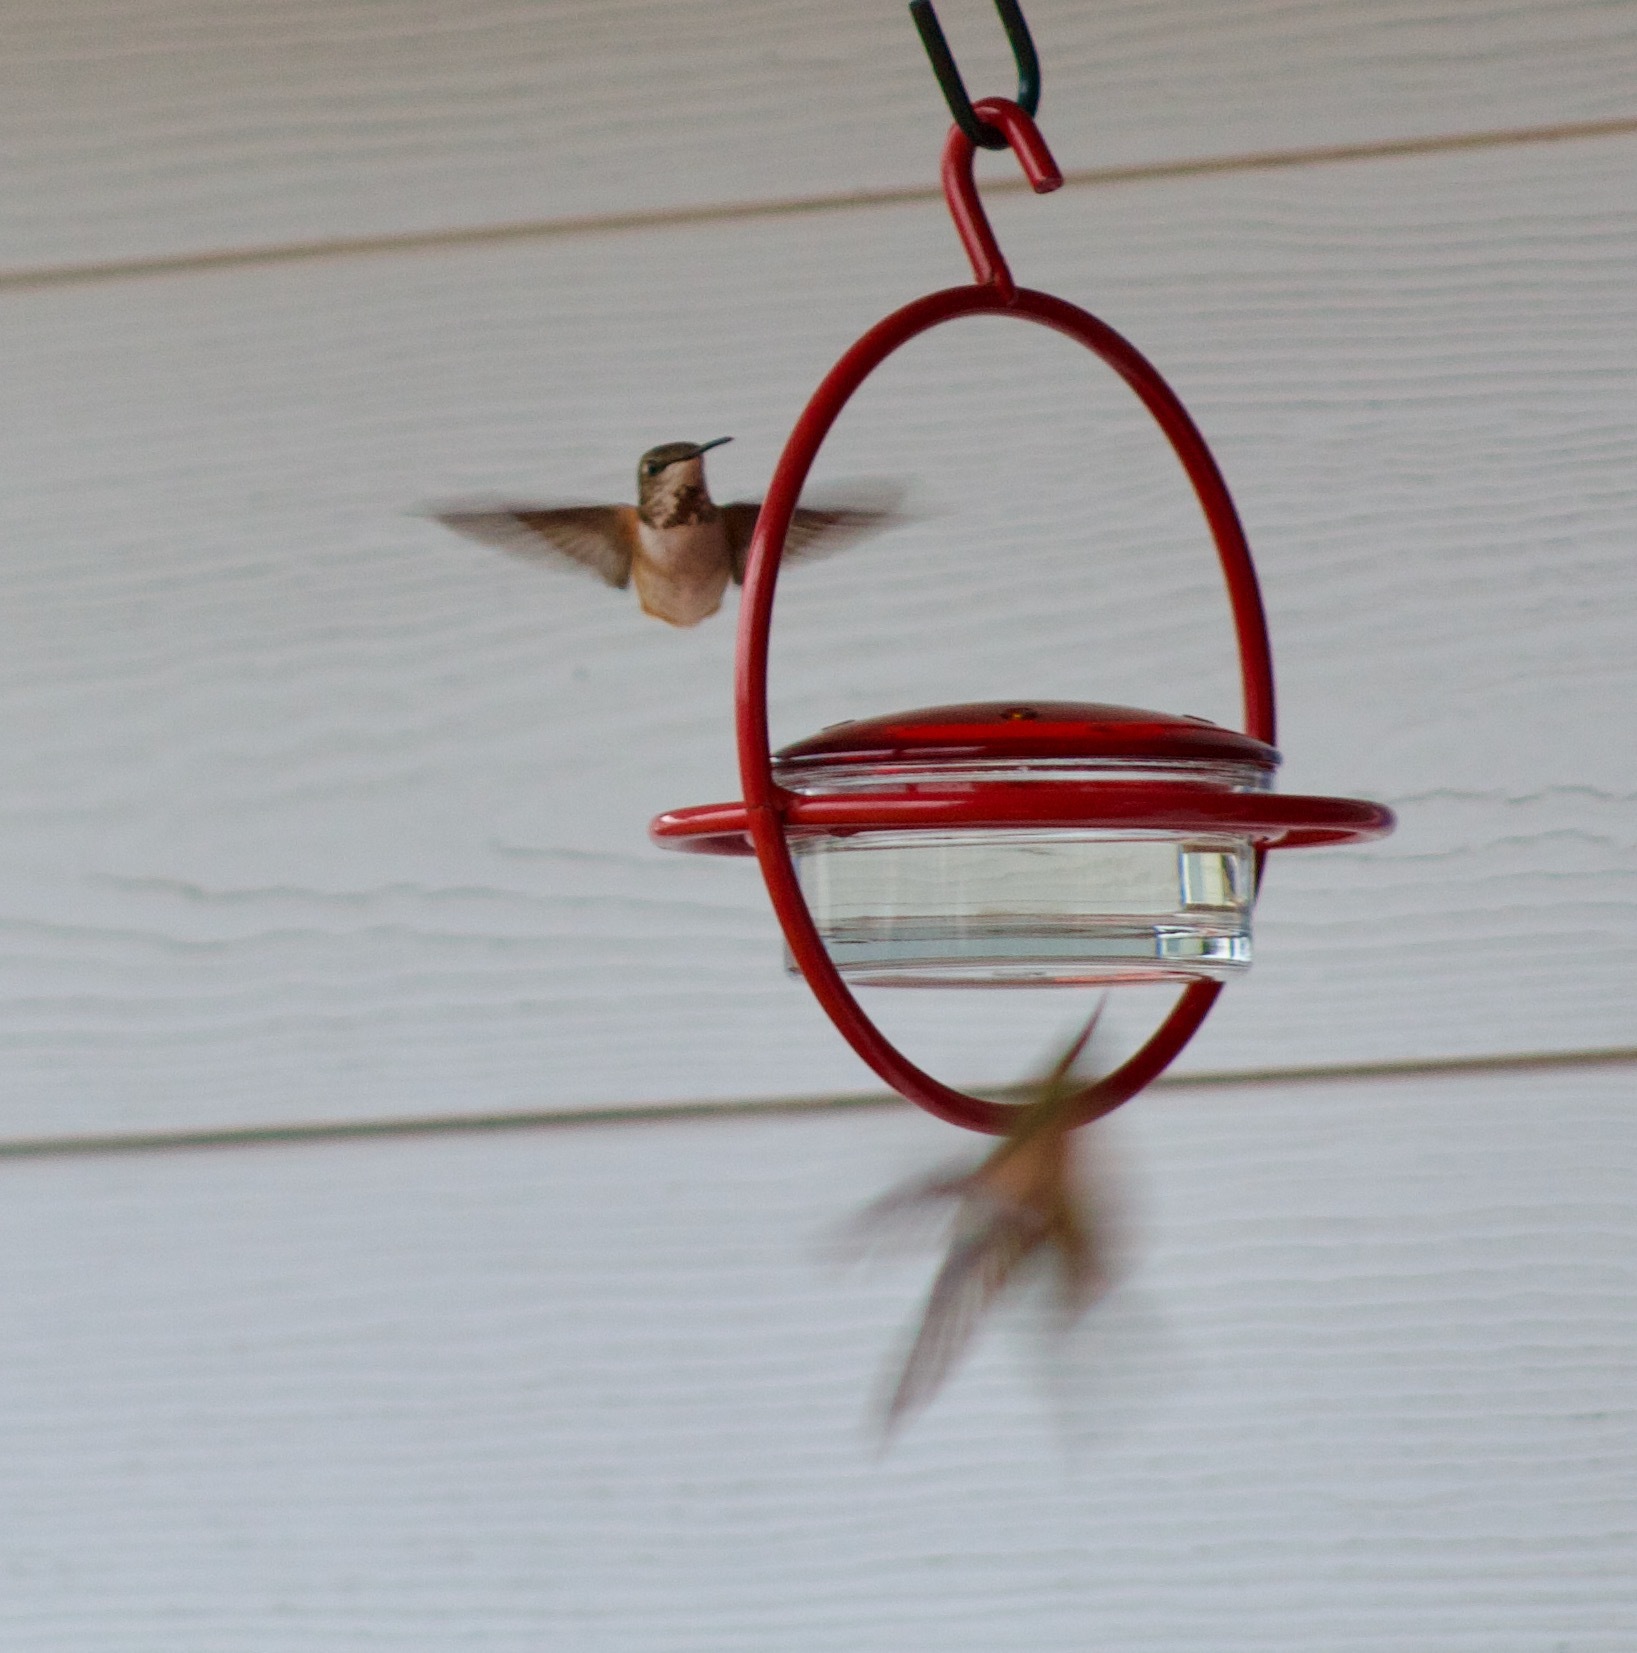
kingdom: Animalia
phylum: Chordata
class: Aves
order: Apodiformes
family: Trochilidae
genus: Selasphorus
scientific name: Selasphorus rufus
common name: Rufous hummingbird
